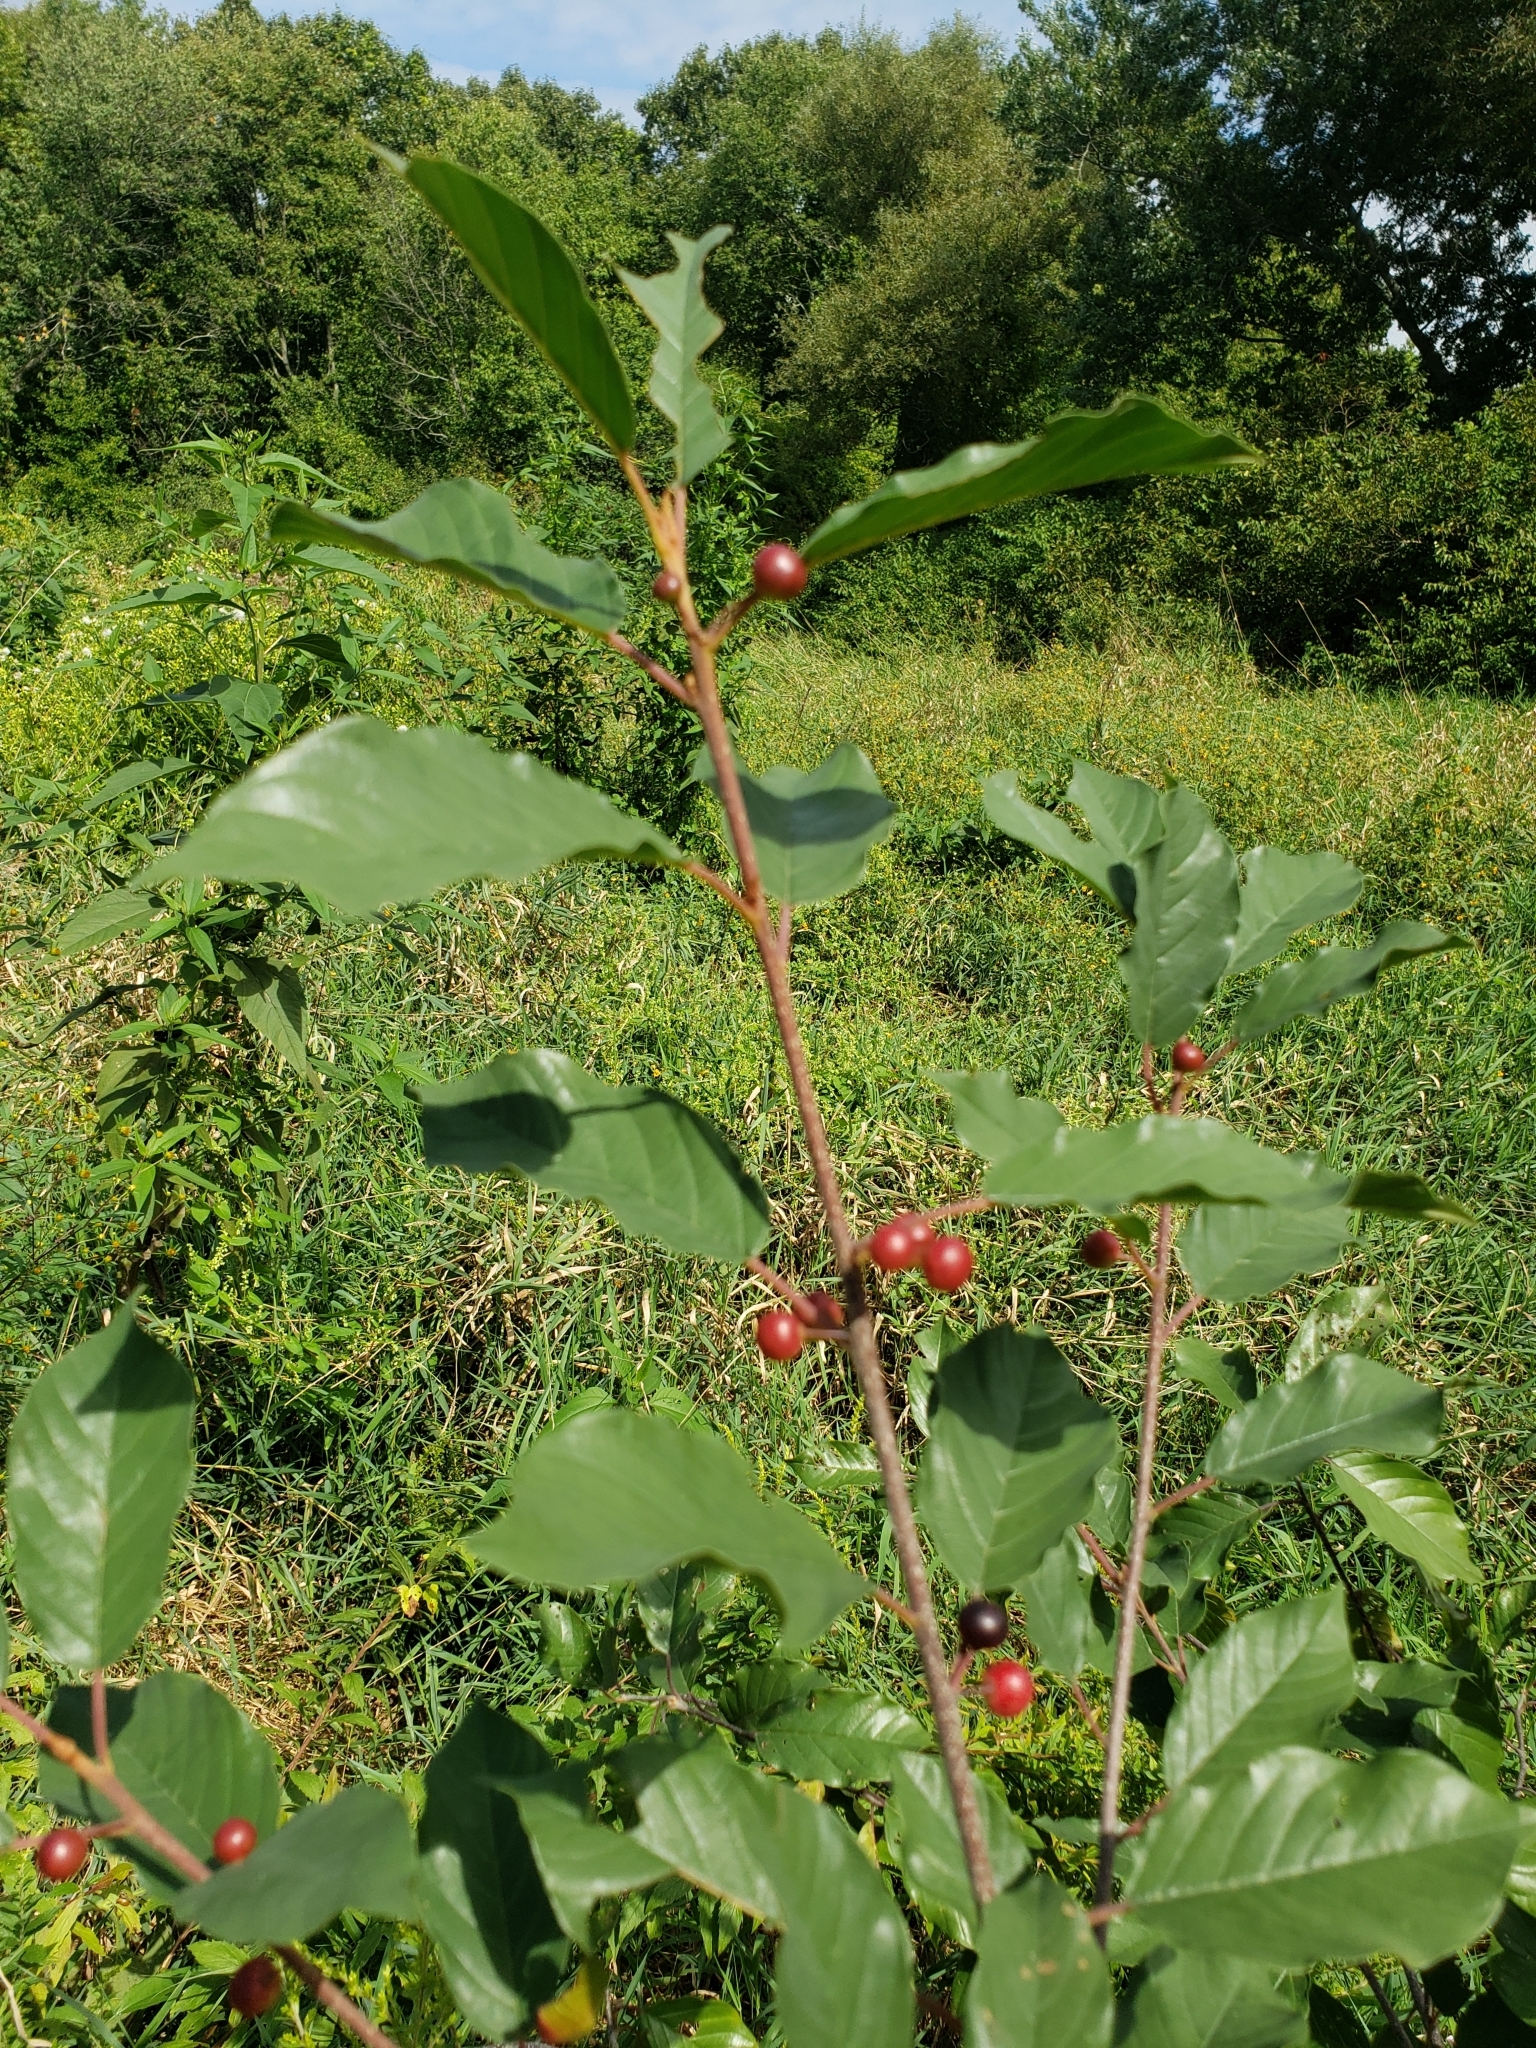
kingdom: Plantae
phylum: Tracheophyta
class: Magnoliopsida
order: Rosales
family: Rhamnaceae
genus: Frangula
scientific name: Frangula alnus
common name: Alder buckthorn
